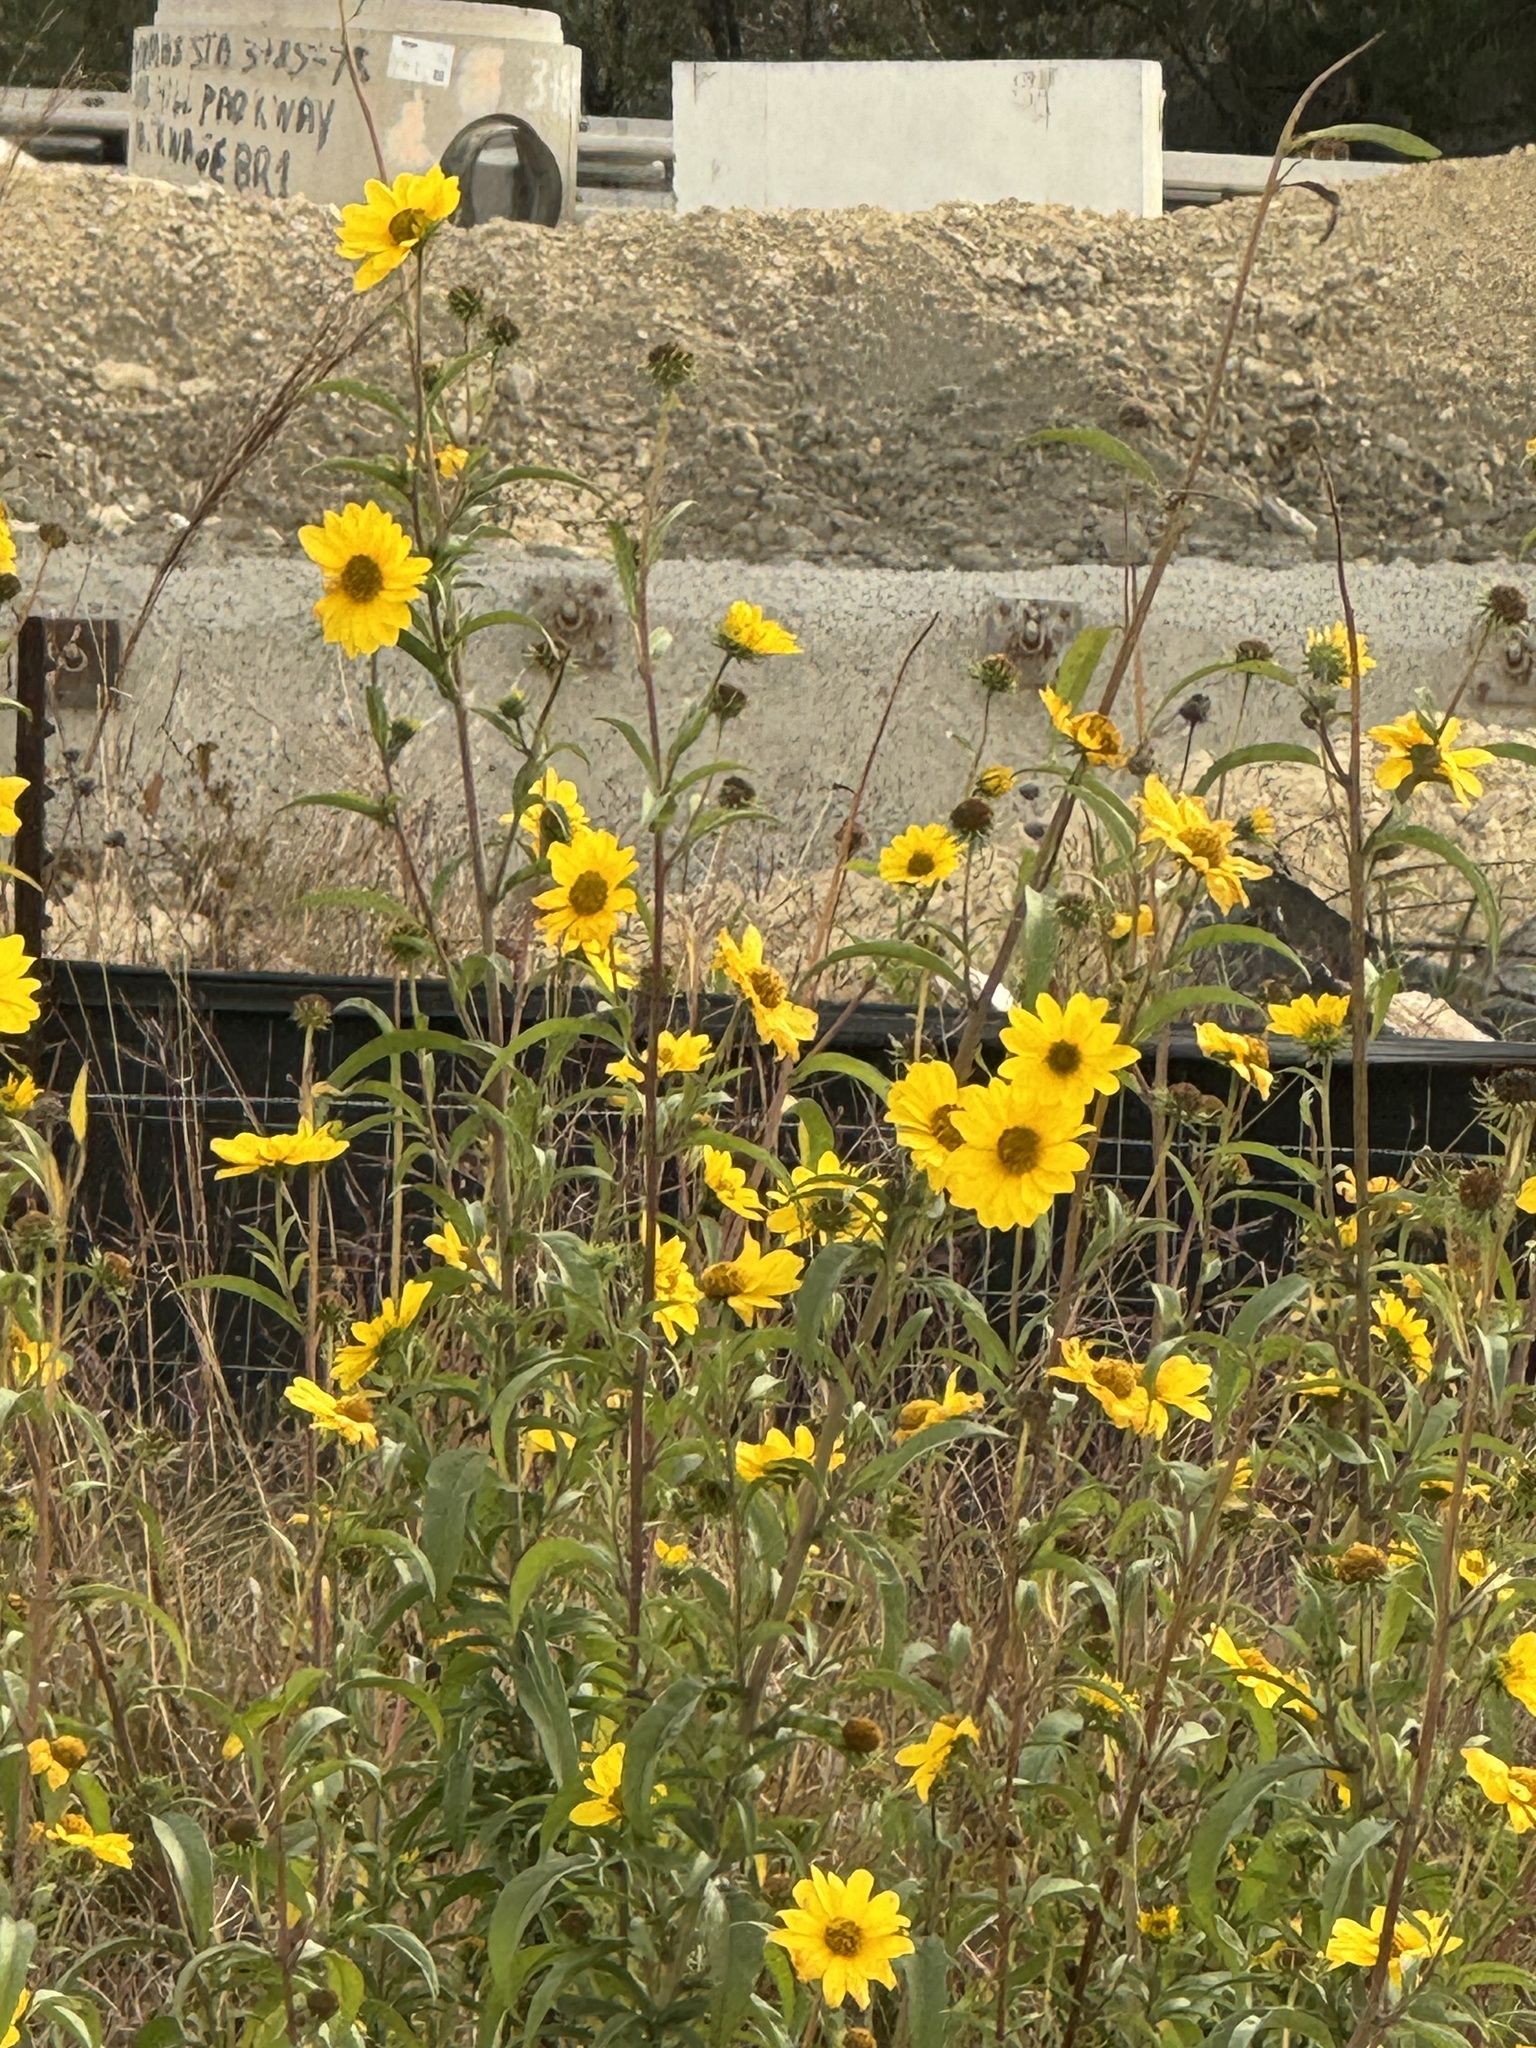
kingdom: Plantae
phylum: Tracheophyta
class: Magnoliopsida
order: Asterales
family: Asteraceae
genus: Helianthus
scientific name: Helianthus maximiliani
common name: Maximilian's sunflower
